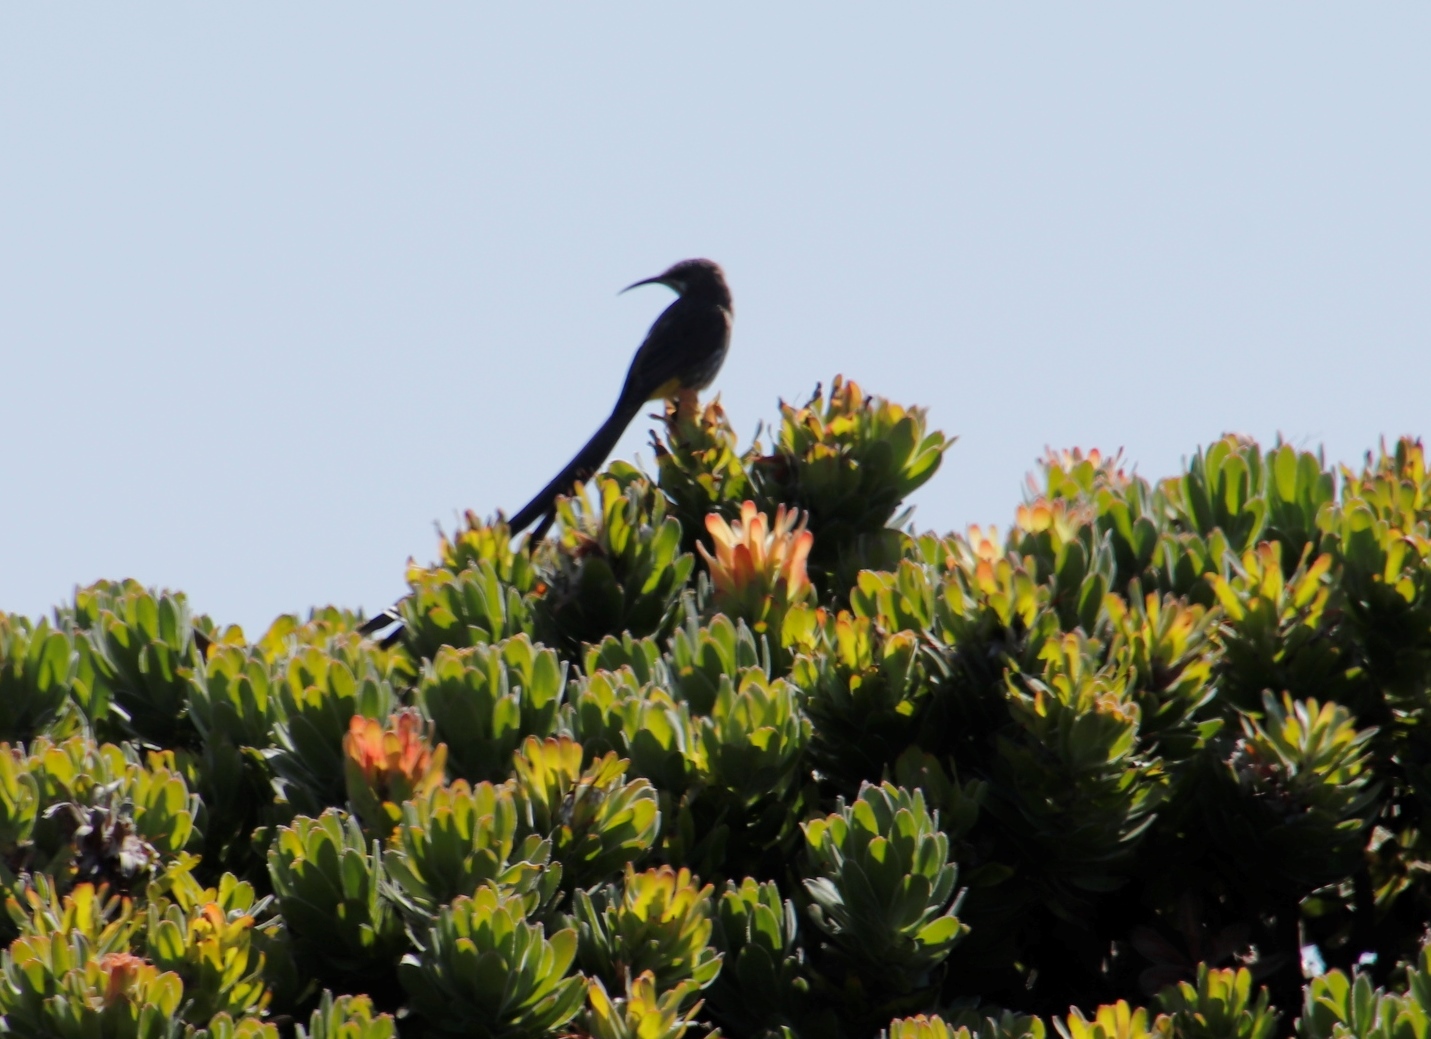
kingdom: Animalia
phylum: Chordata
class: Aves
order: Passeriformes
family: Promeropidae
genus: Promerops
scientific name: Promerops cafer
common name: Cape sugarbird
